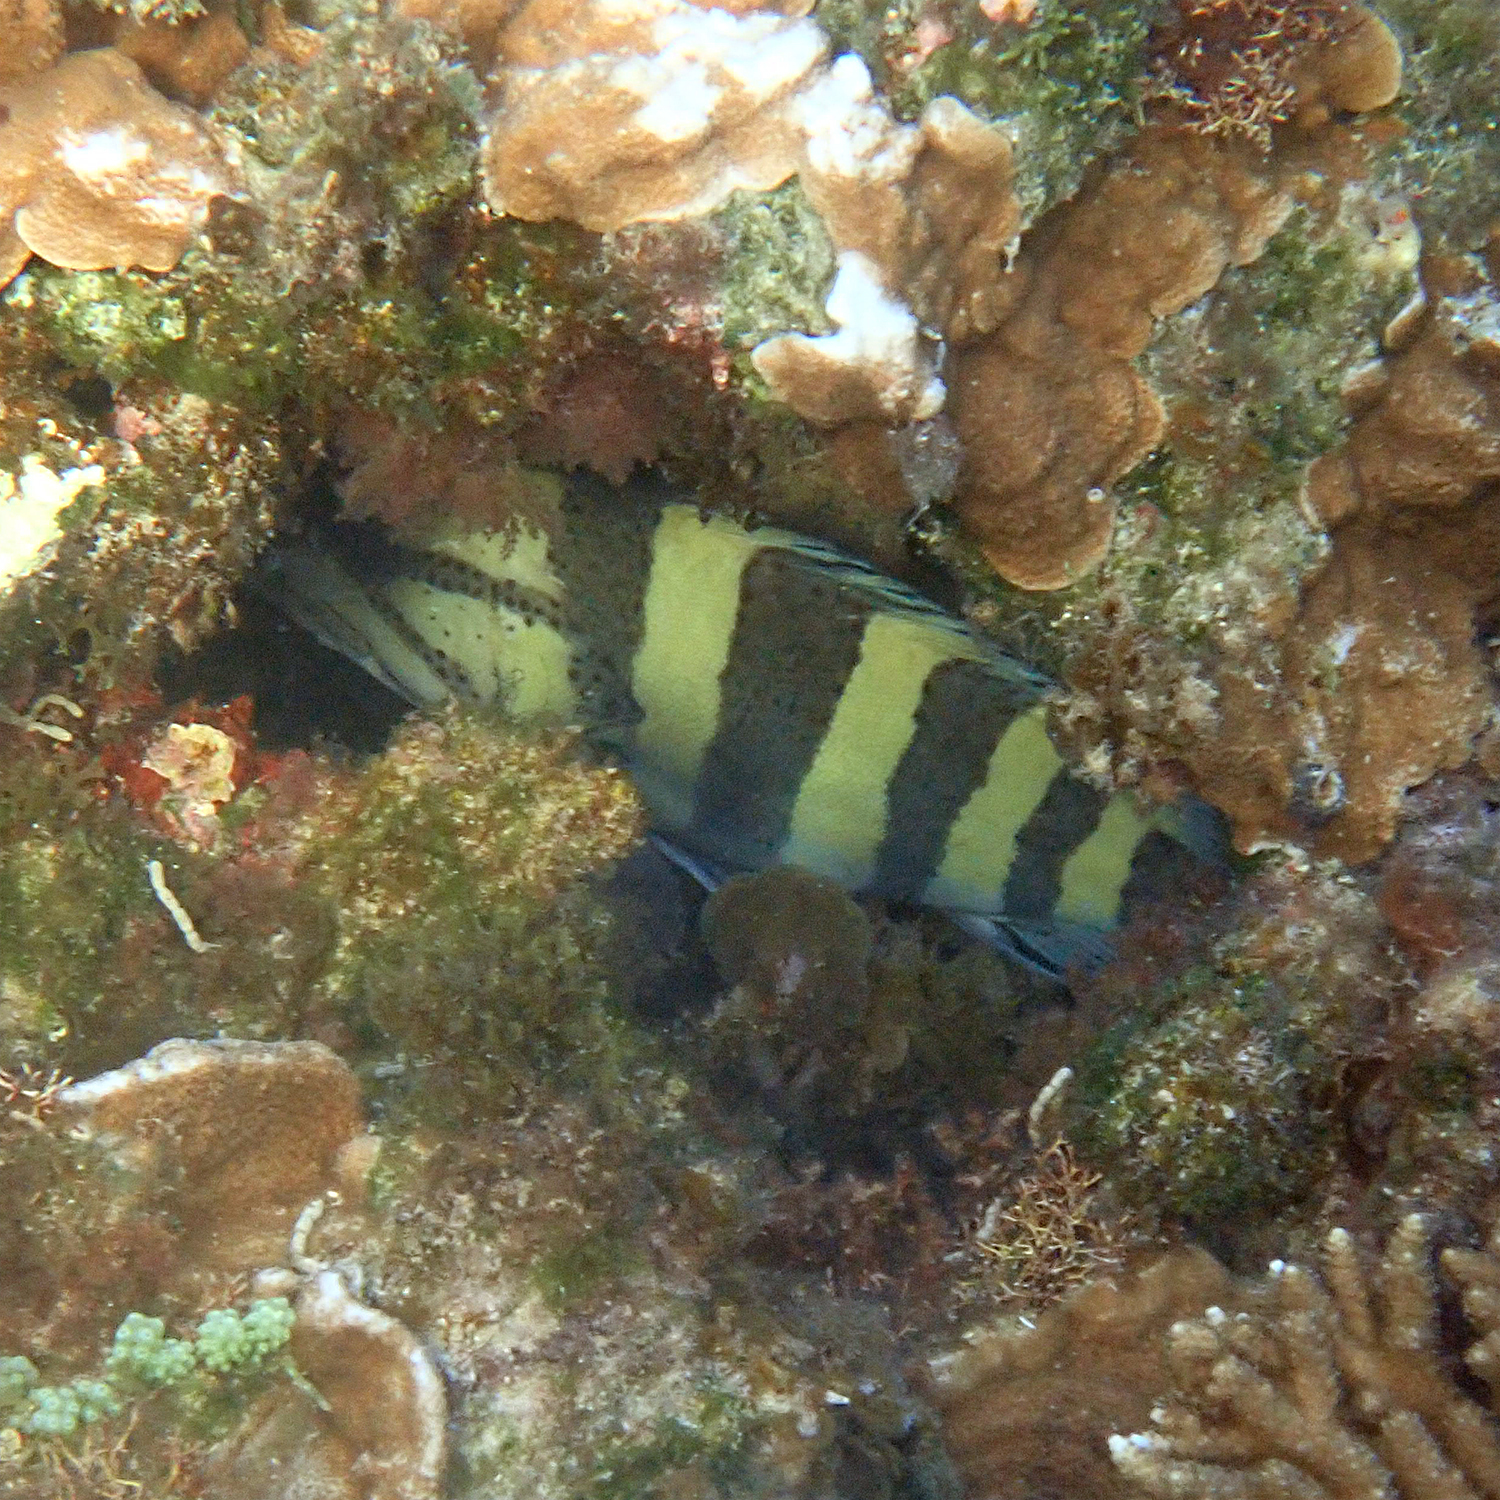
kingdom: Animalia
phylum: Chordata
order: Perciformes
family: Serranidae
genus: Acanthistius
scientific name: Acanthistius cinctus
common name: Girdled rock cod
